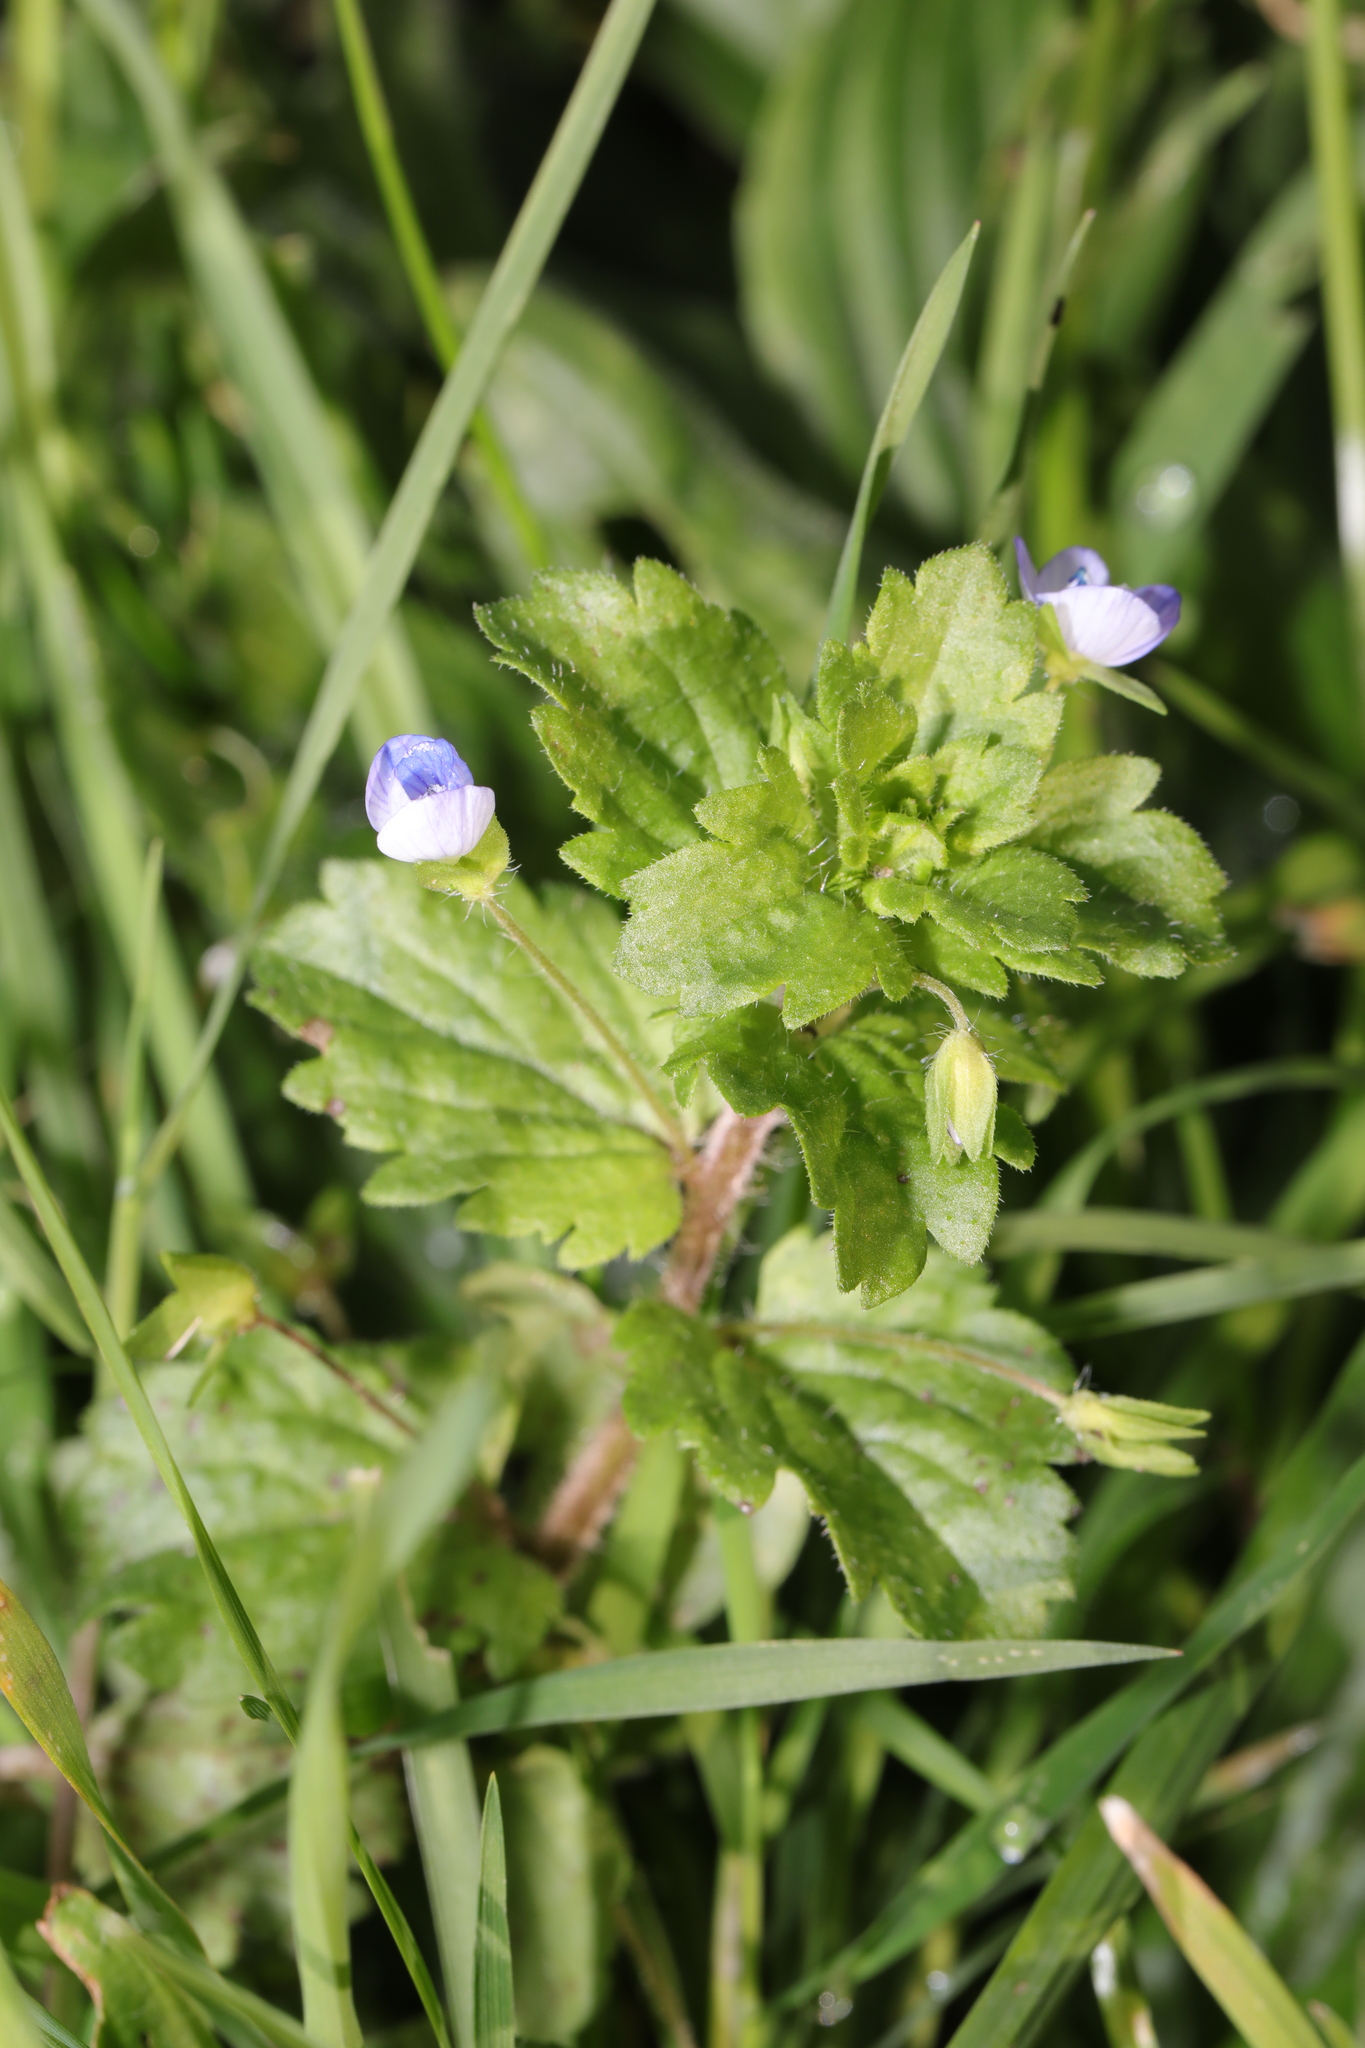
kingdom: Plantae
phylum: Tracheophyta
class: Magnoliopsida
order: Lamiales
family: Plantaginaceae
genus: Veronica
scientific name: Veronica persica
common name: Common field-speedwell
